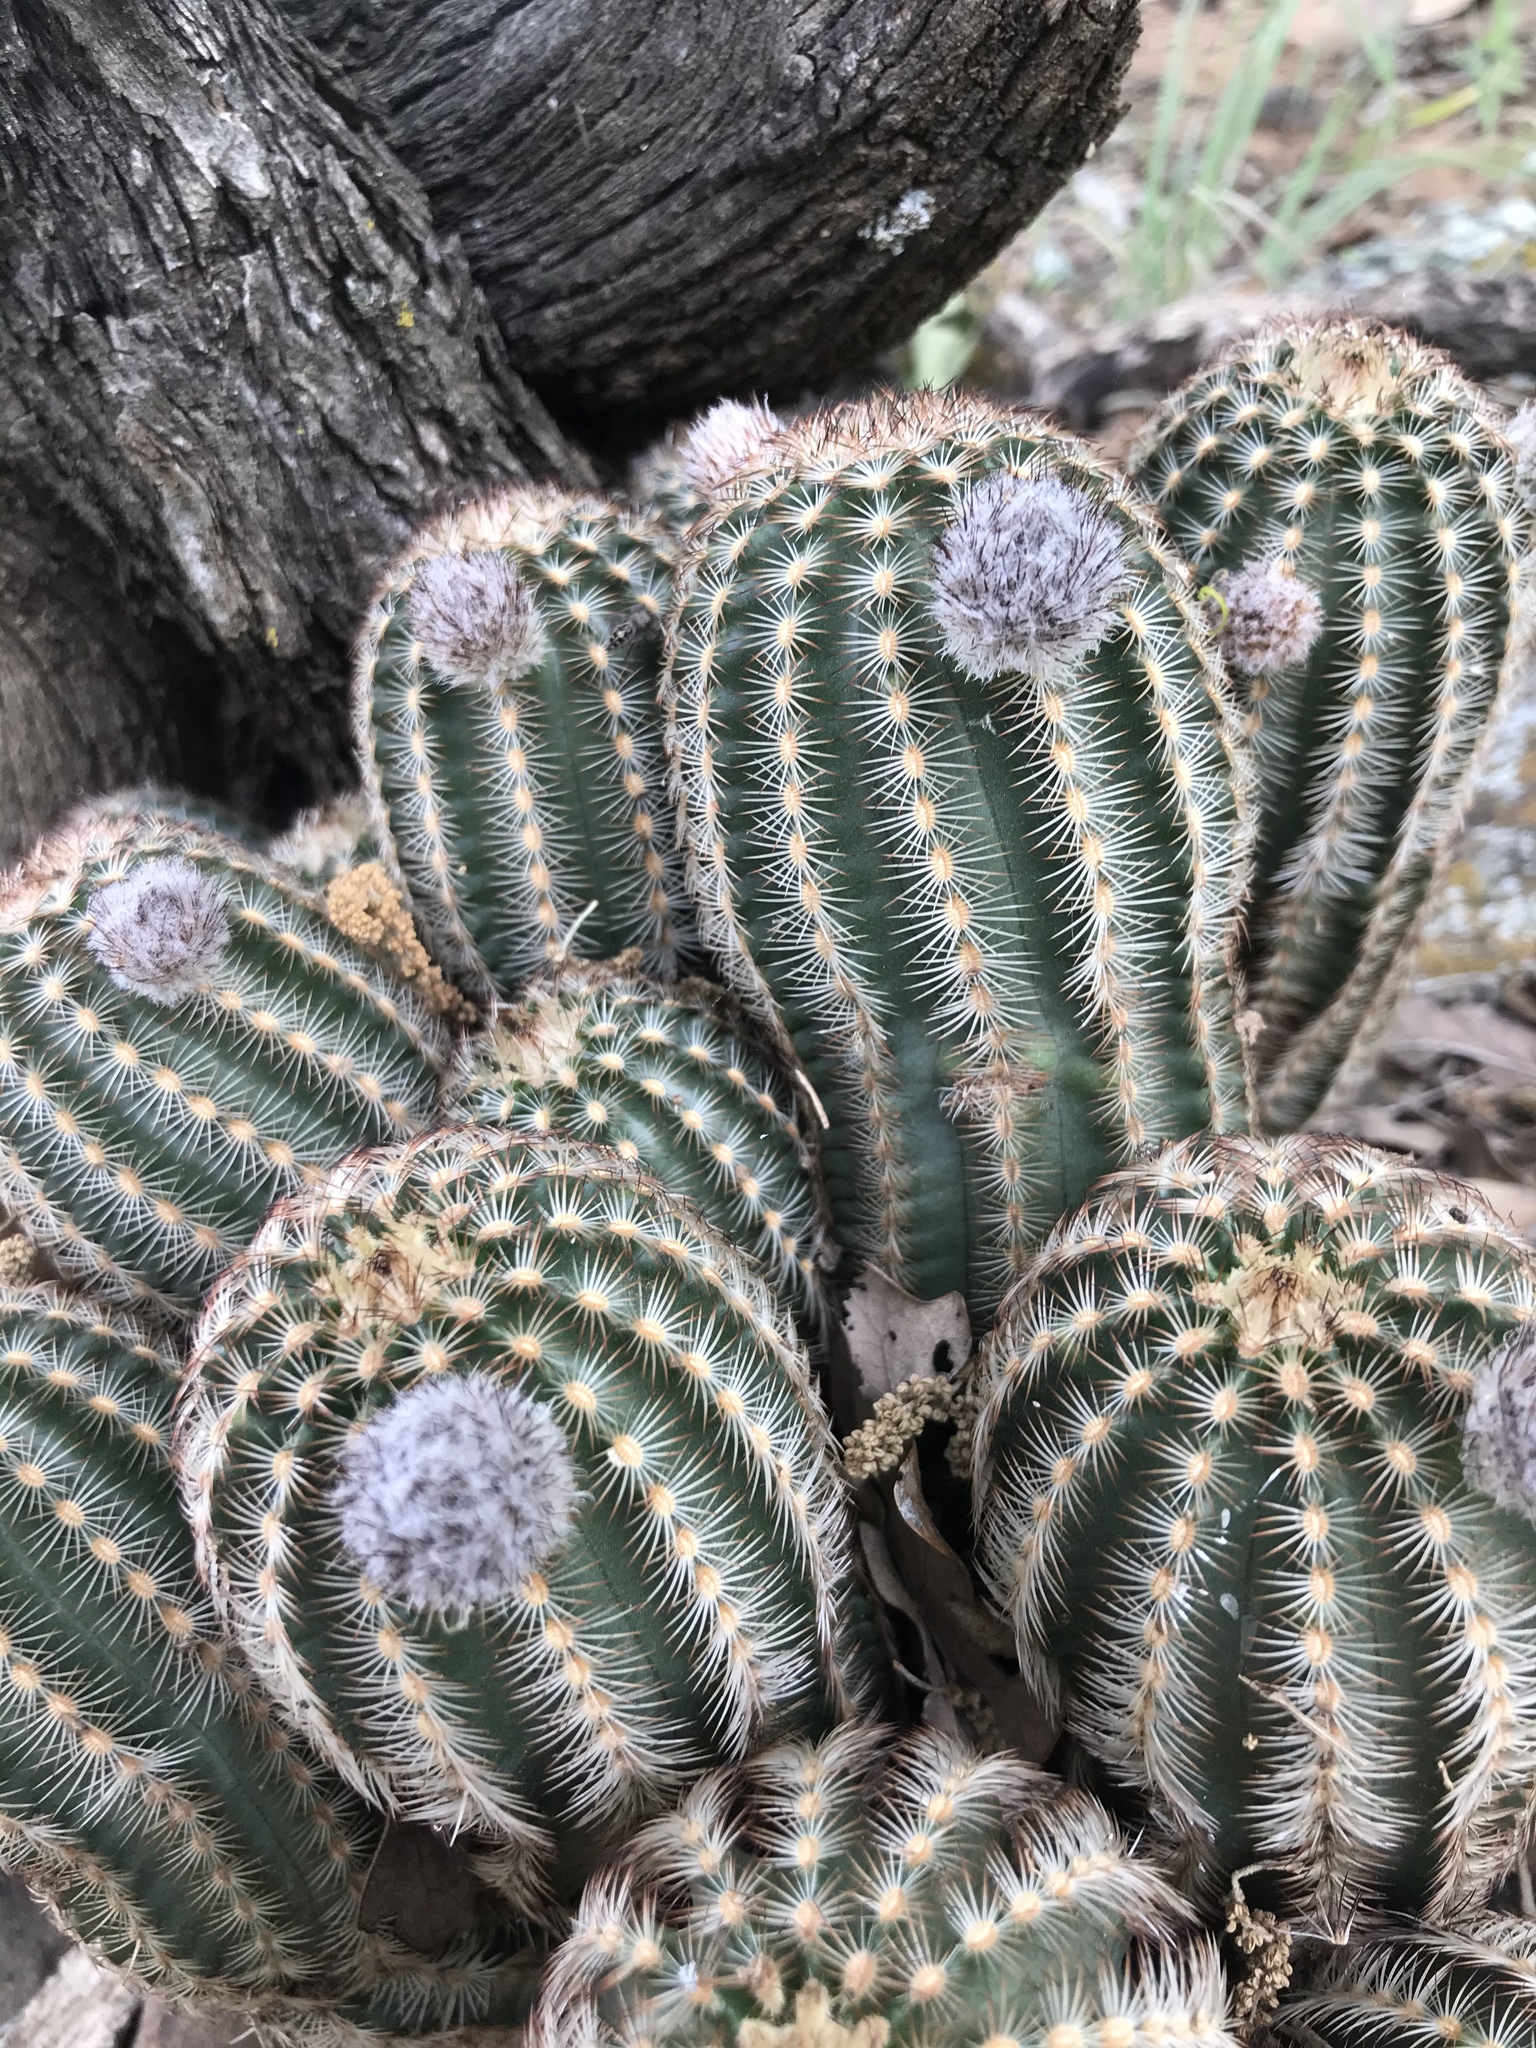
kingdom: Plantae
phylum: Tracheophyta
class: Magnoliopsida
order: Caryophyllales
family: Cactaceae
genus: Echinocereus
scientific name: Echinocereus reichenbachii
